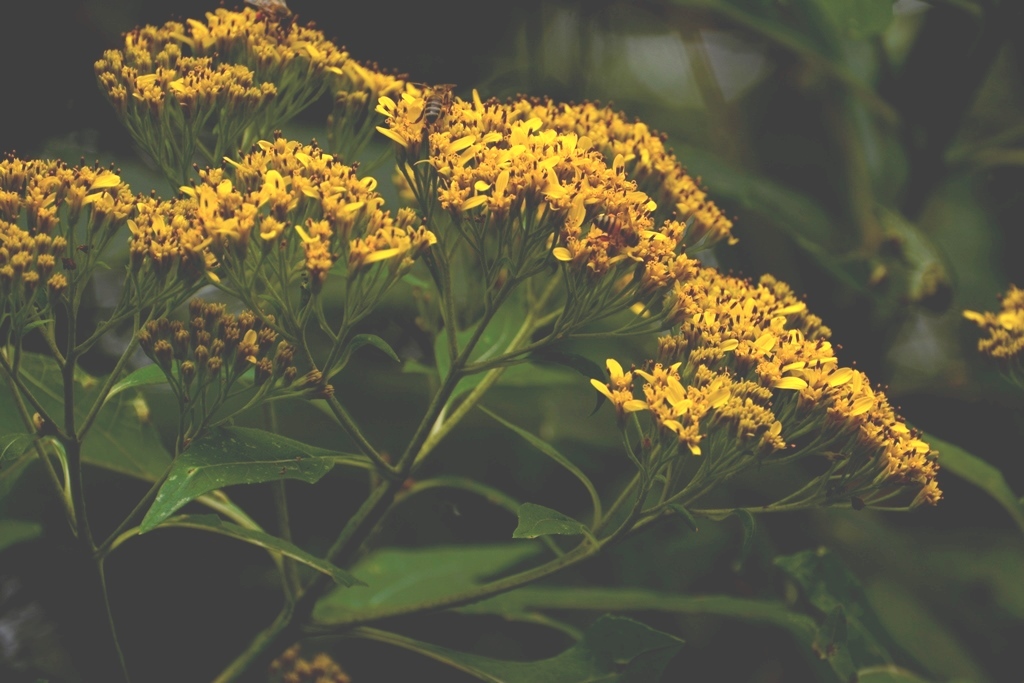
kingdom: Plantae
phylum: Tracheophyta
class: Magnoliopsida
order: Asterales
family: Asteraceae
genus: Verbesina
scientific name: Verbesina breedlovei
